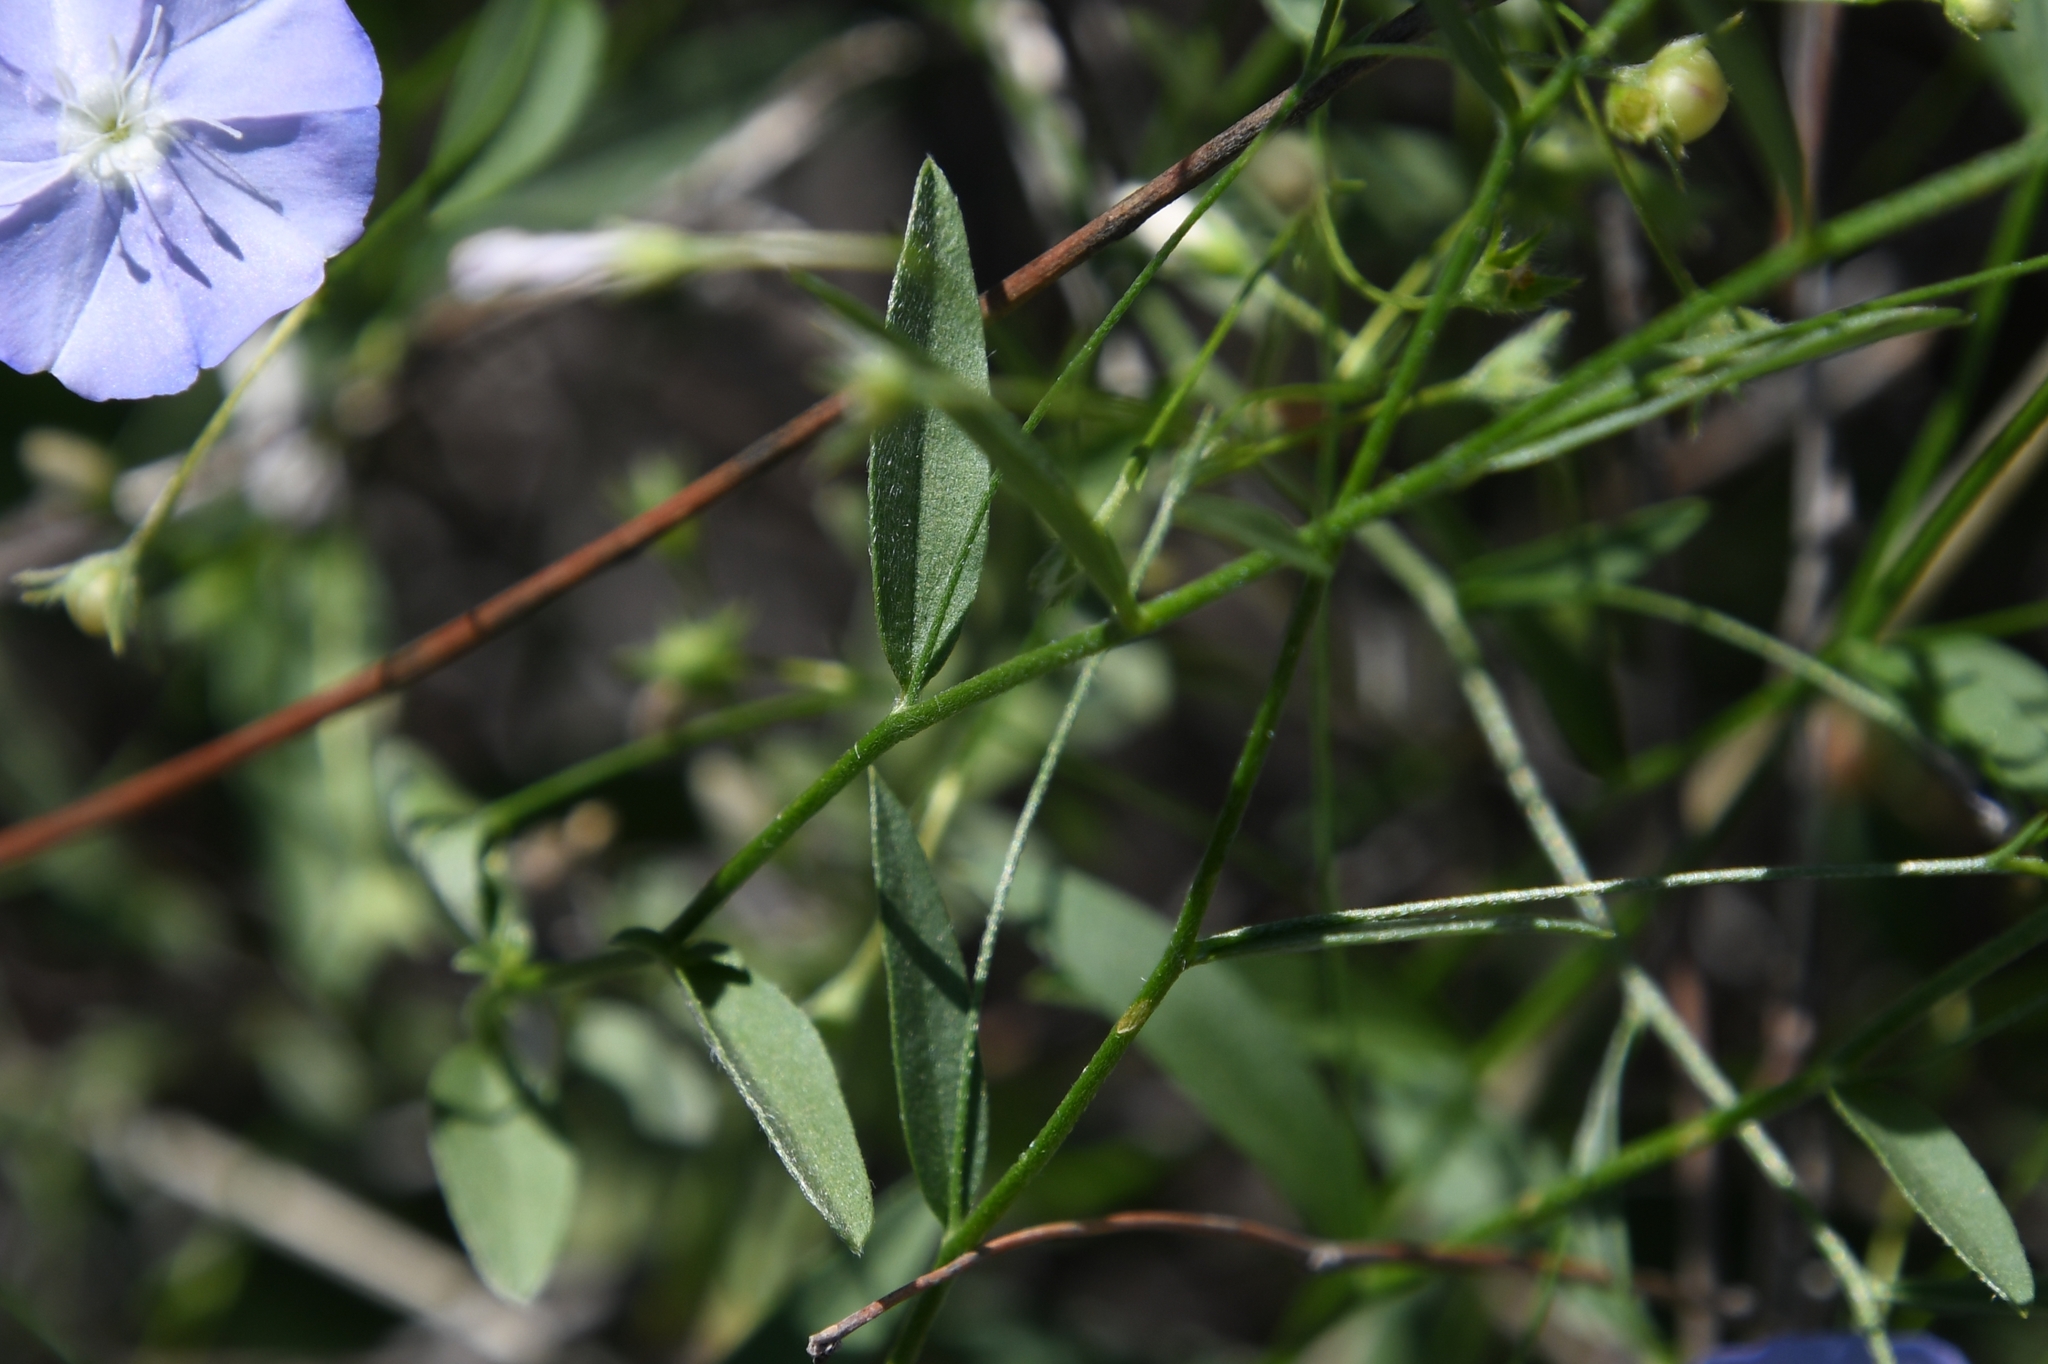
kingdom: Plantae
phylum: Tracheophyta
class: Magnoliopsida
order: Solanales
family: Convolvulaceae
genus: Evolvulus
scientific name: Evolvulus arizonicus
